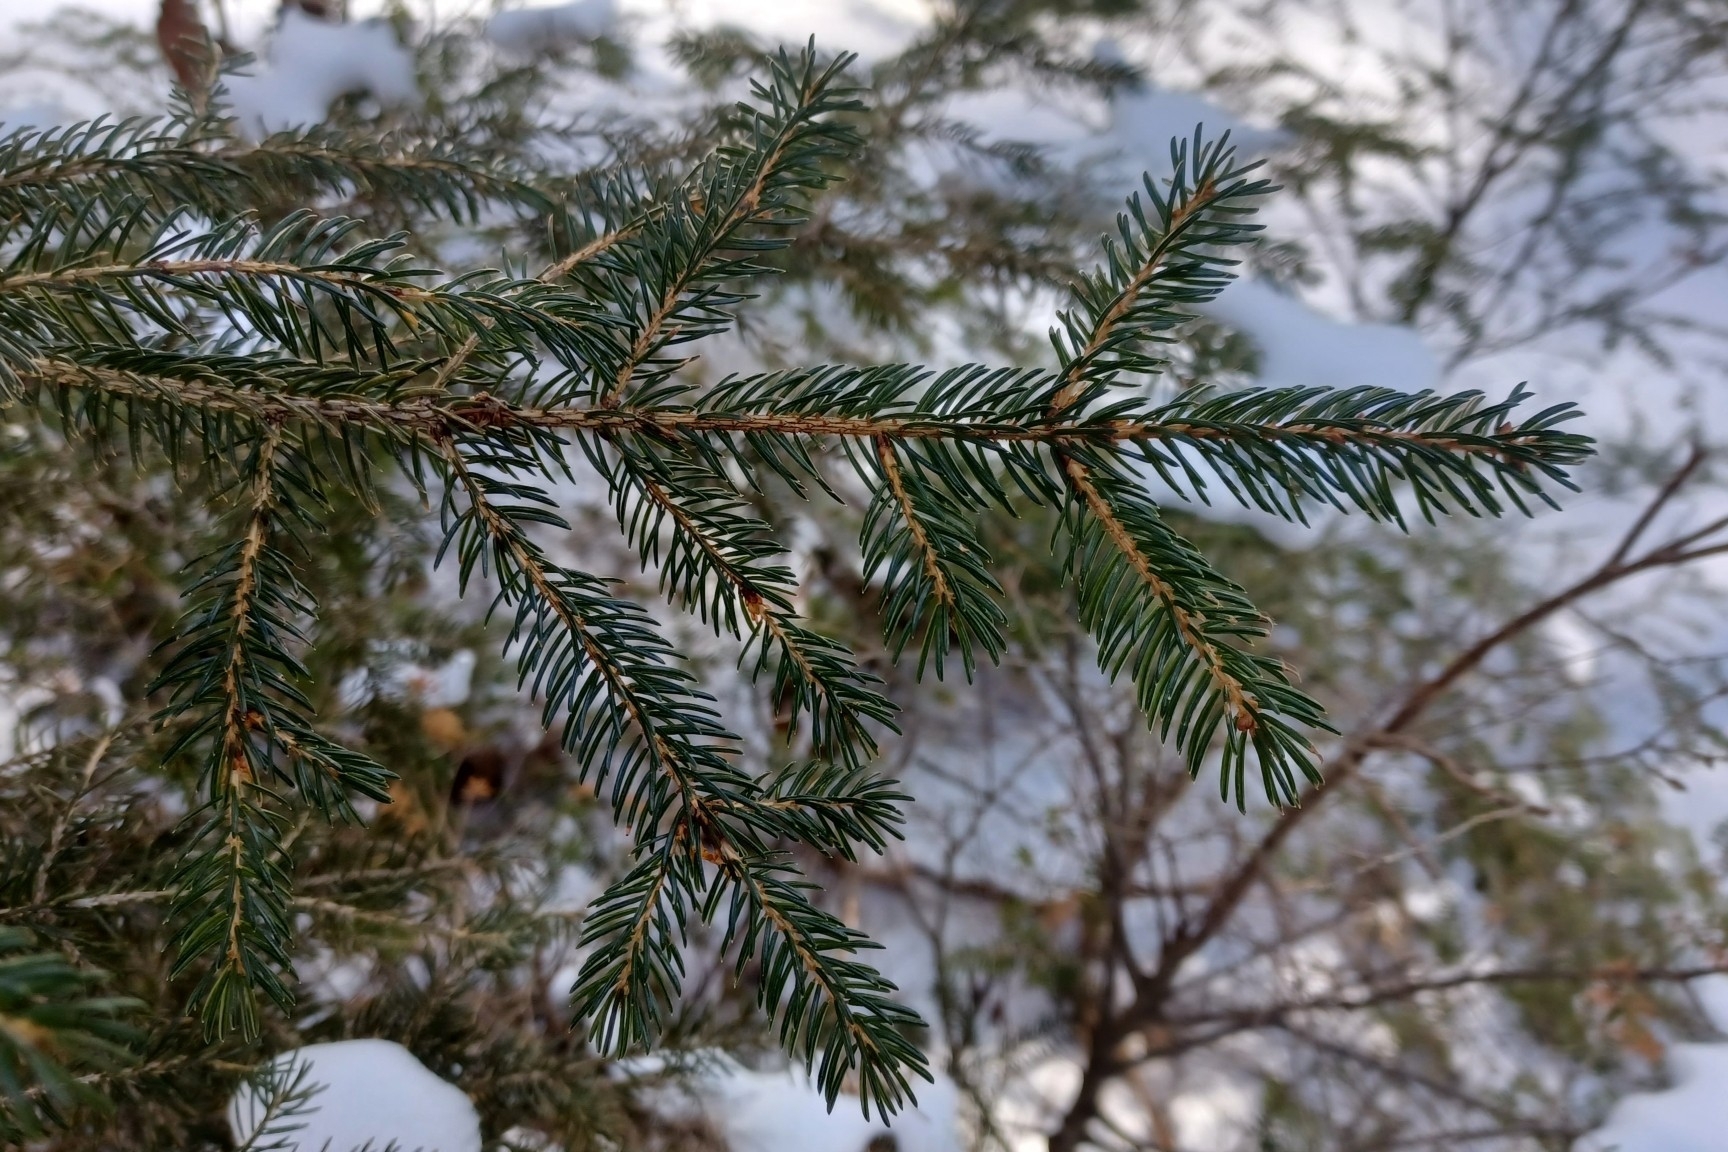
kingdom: Plantae
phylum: Tracheophyta
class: Pinopsida
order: Pinales
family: Pinaceae
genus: Picea
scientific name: Picea rubens
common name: Red spruce
